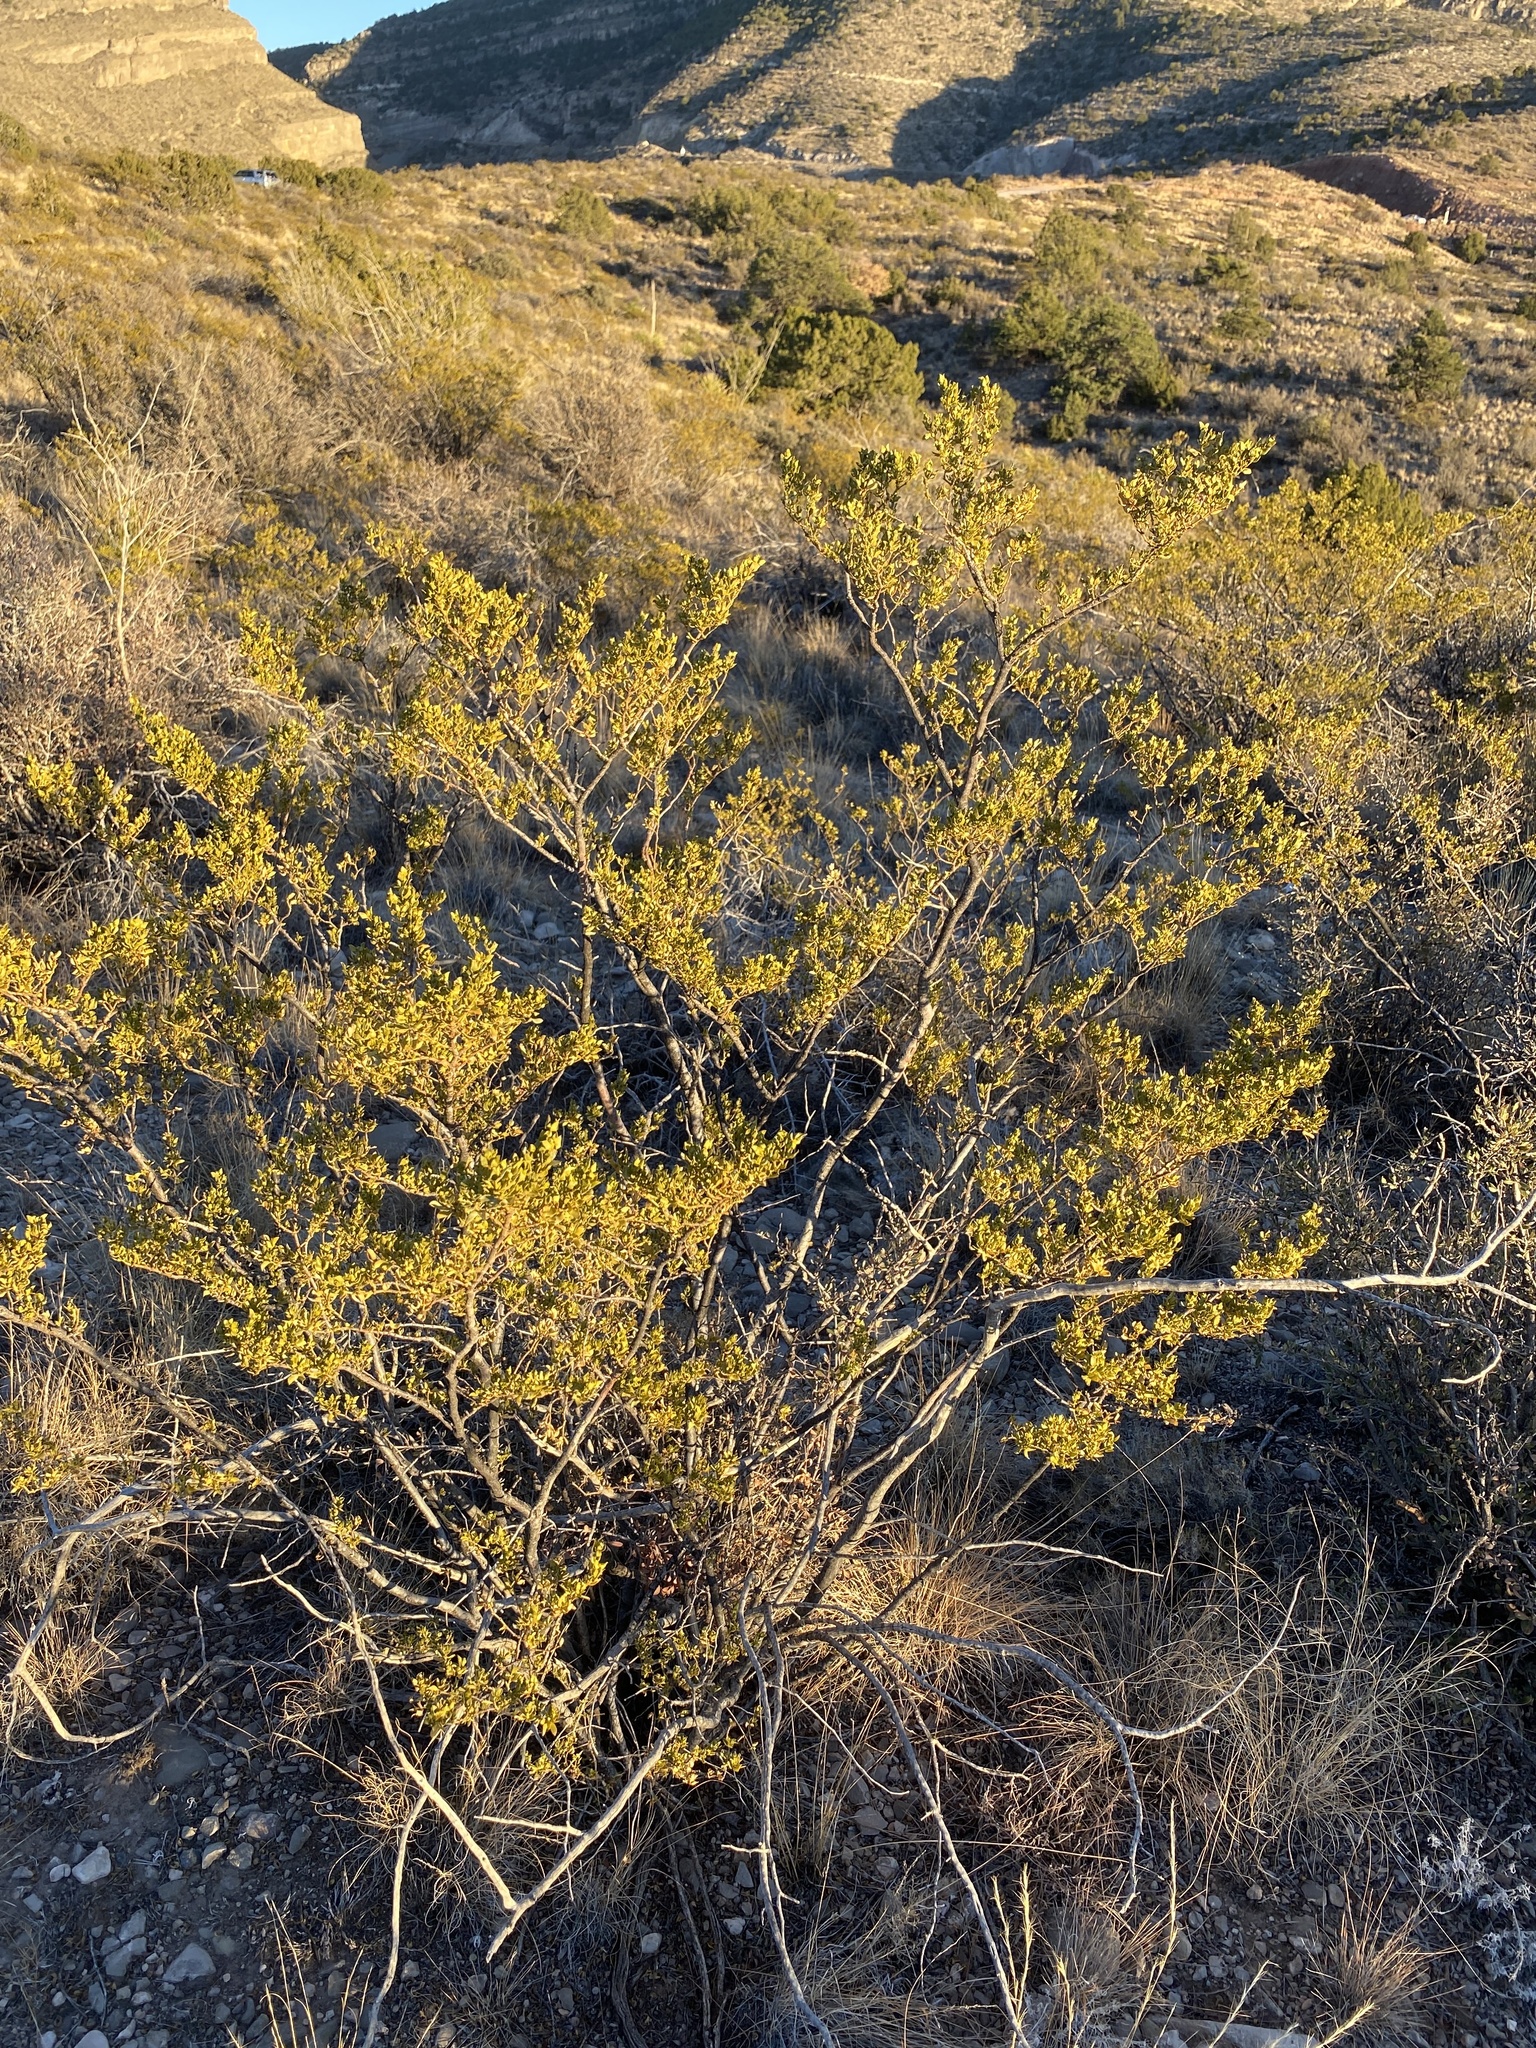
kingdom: Plantae
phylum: Tracheophyta
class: Magnoliopsida
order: Zygophyllales
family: Zygophyllaceae
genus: Larrea
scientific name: Larrea tridentata
